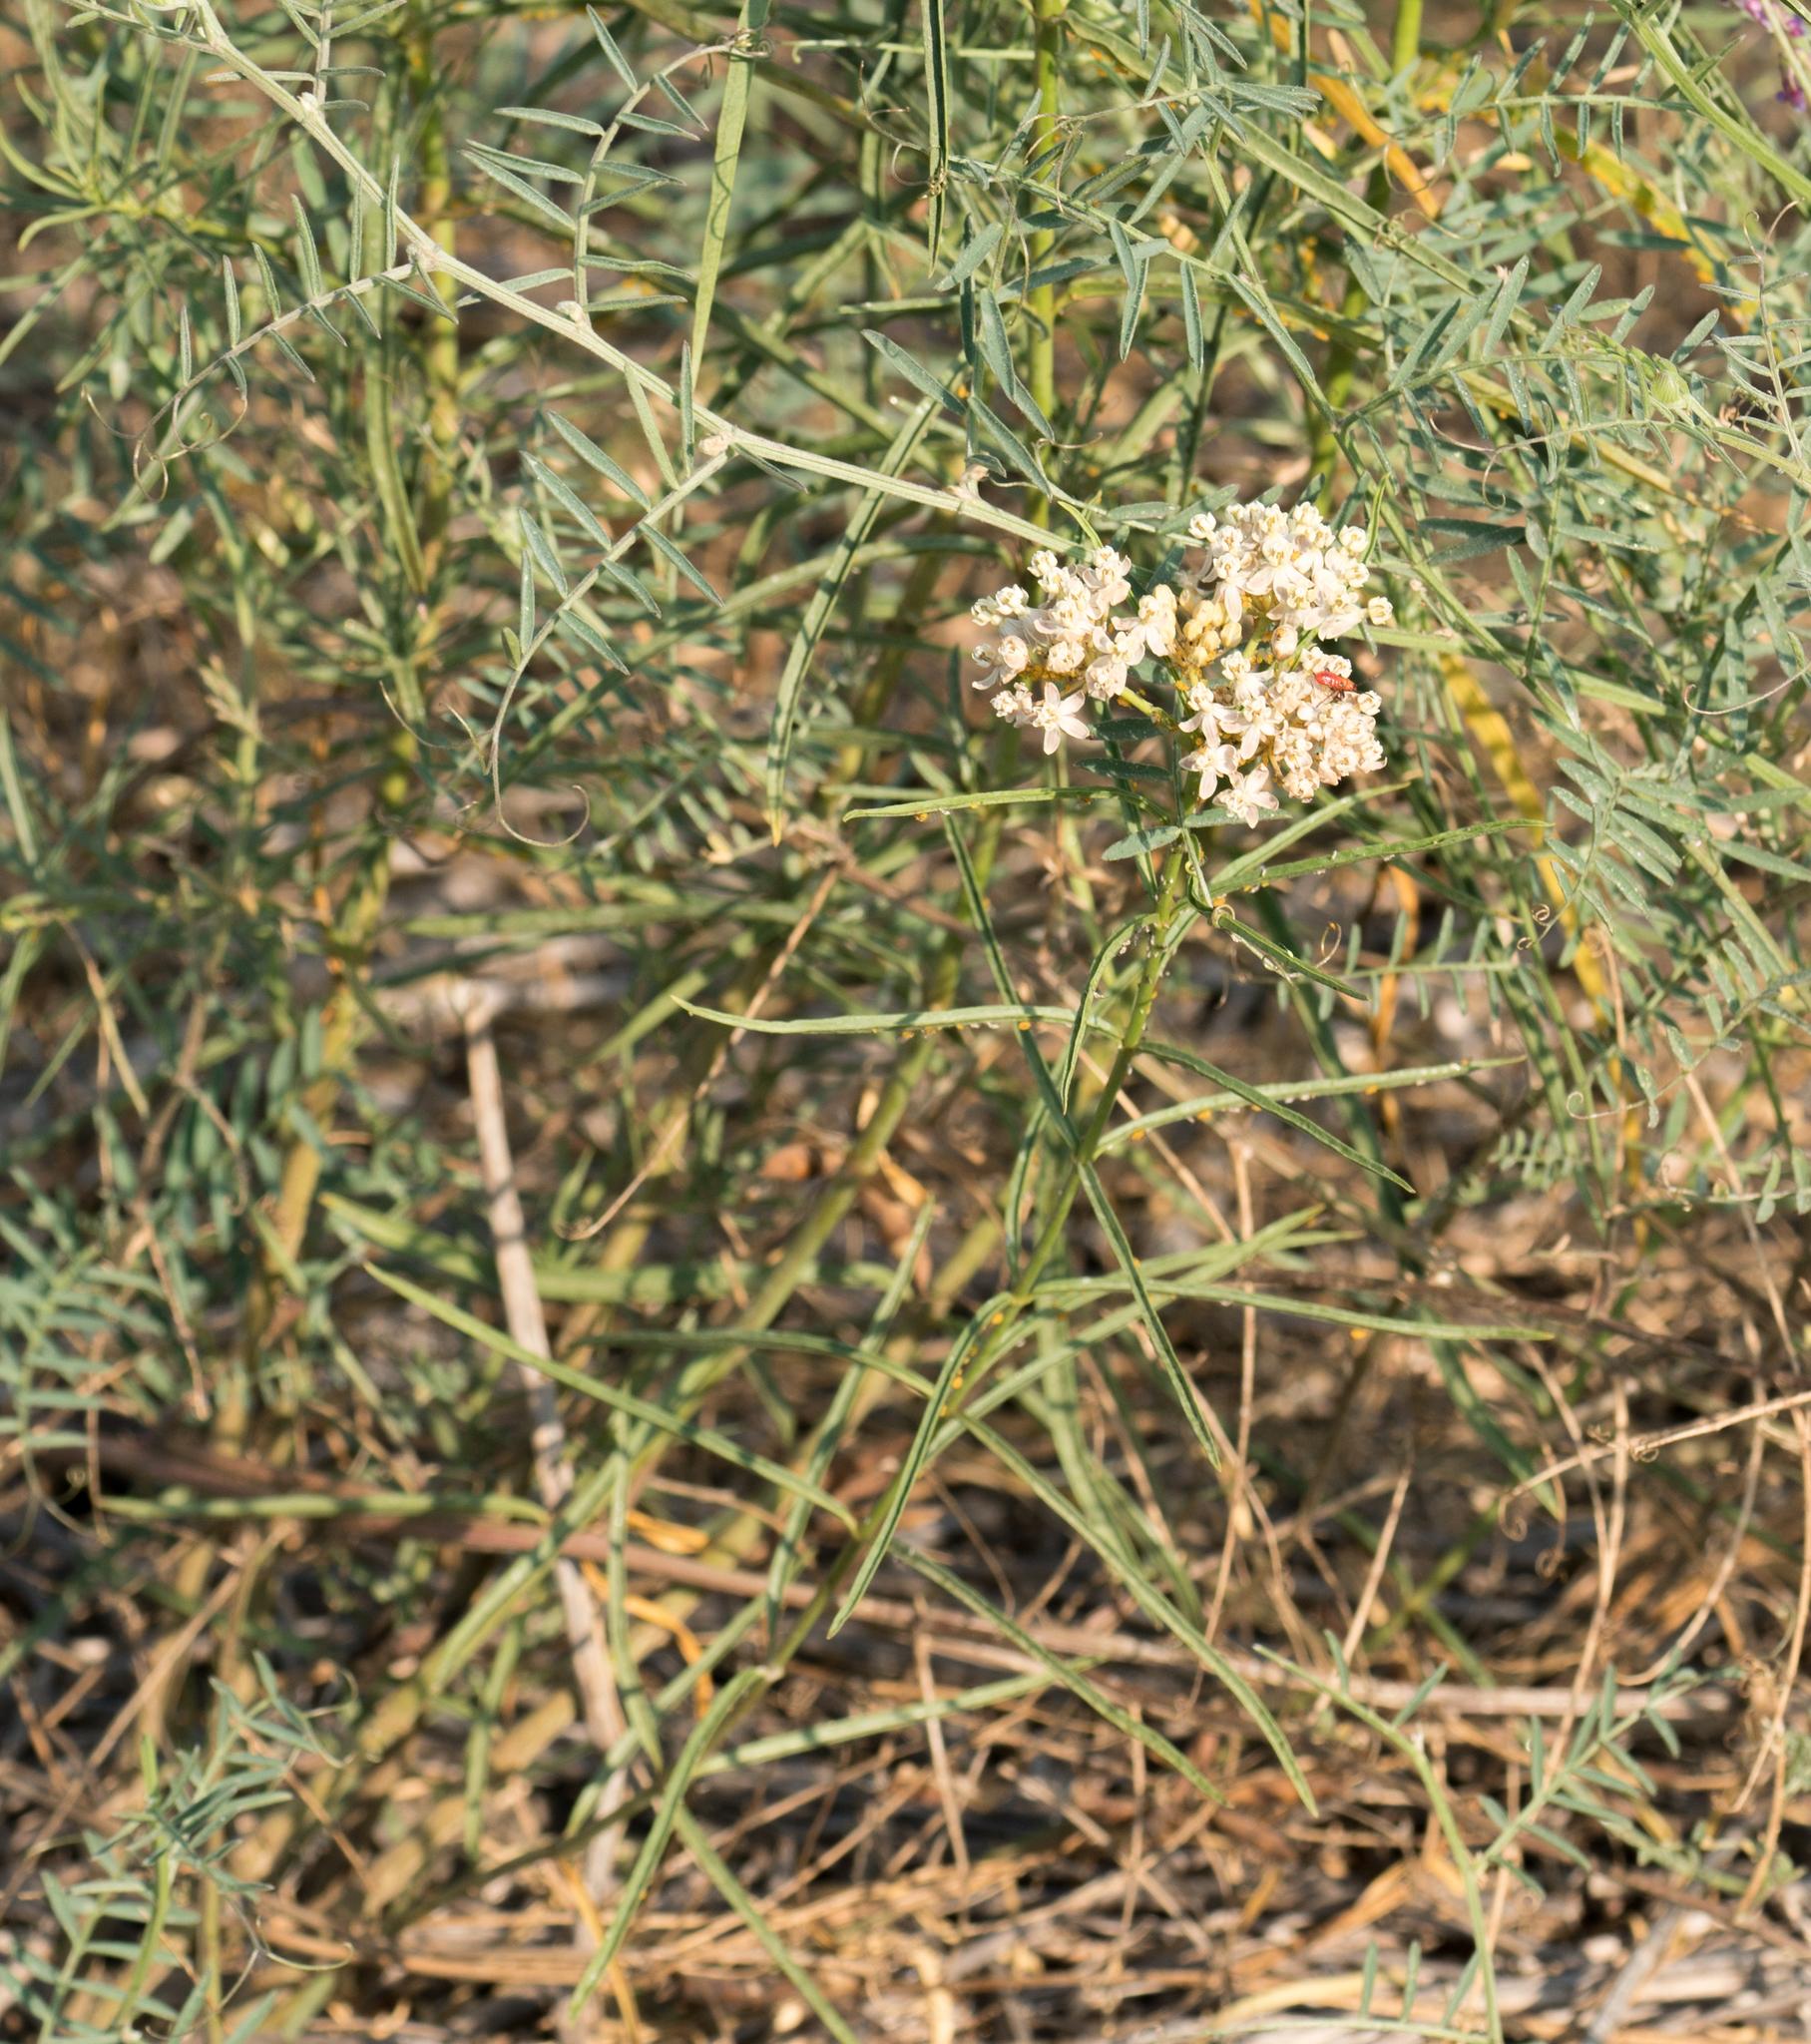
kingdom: Plantae
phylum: Tracheophyta
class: Magnoliopsida
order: Gentianales
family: Apocynaceae
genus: Asclepias
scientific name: Asclepias fascicularis
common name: Mexican milkweed
